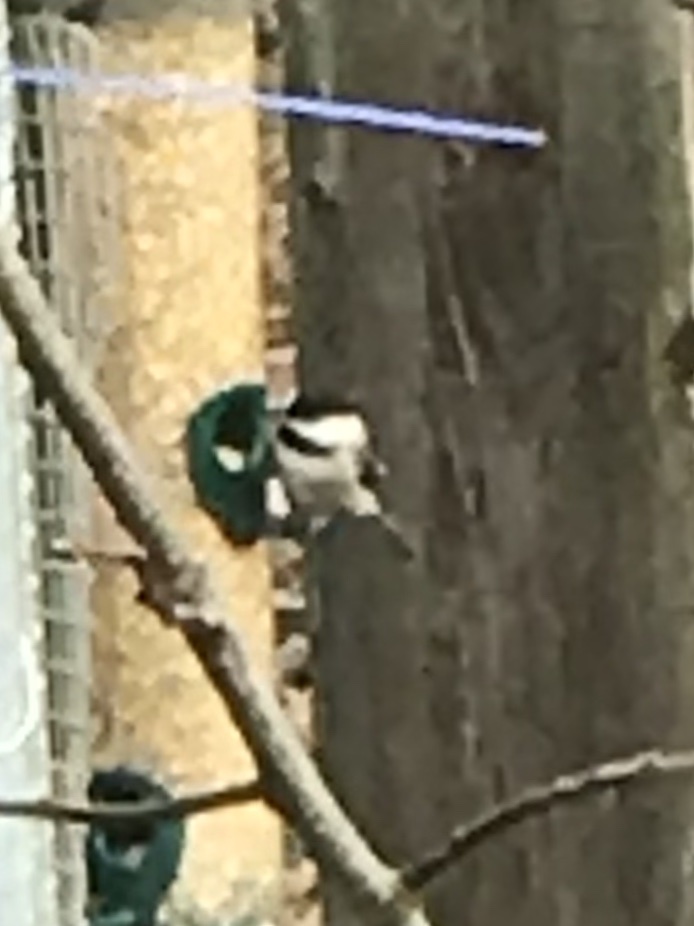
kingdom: Animalia
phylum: Chordata
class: Aves
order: Passeriformes
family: Paridae
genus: Poecile
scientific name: Poecile carolinensis
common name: Carolina chickadee
